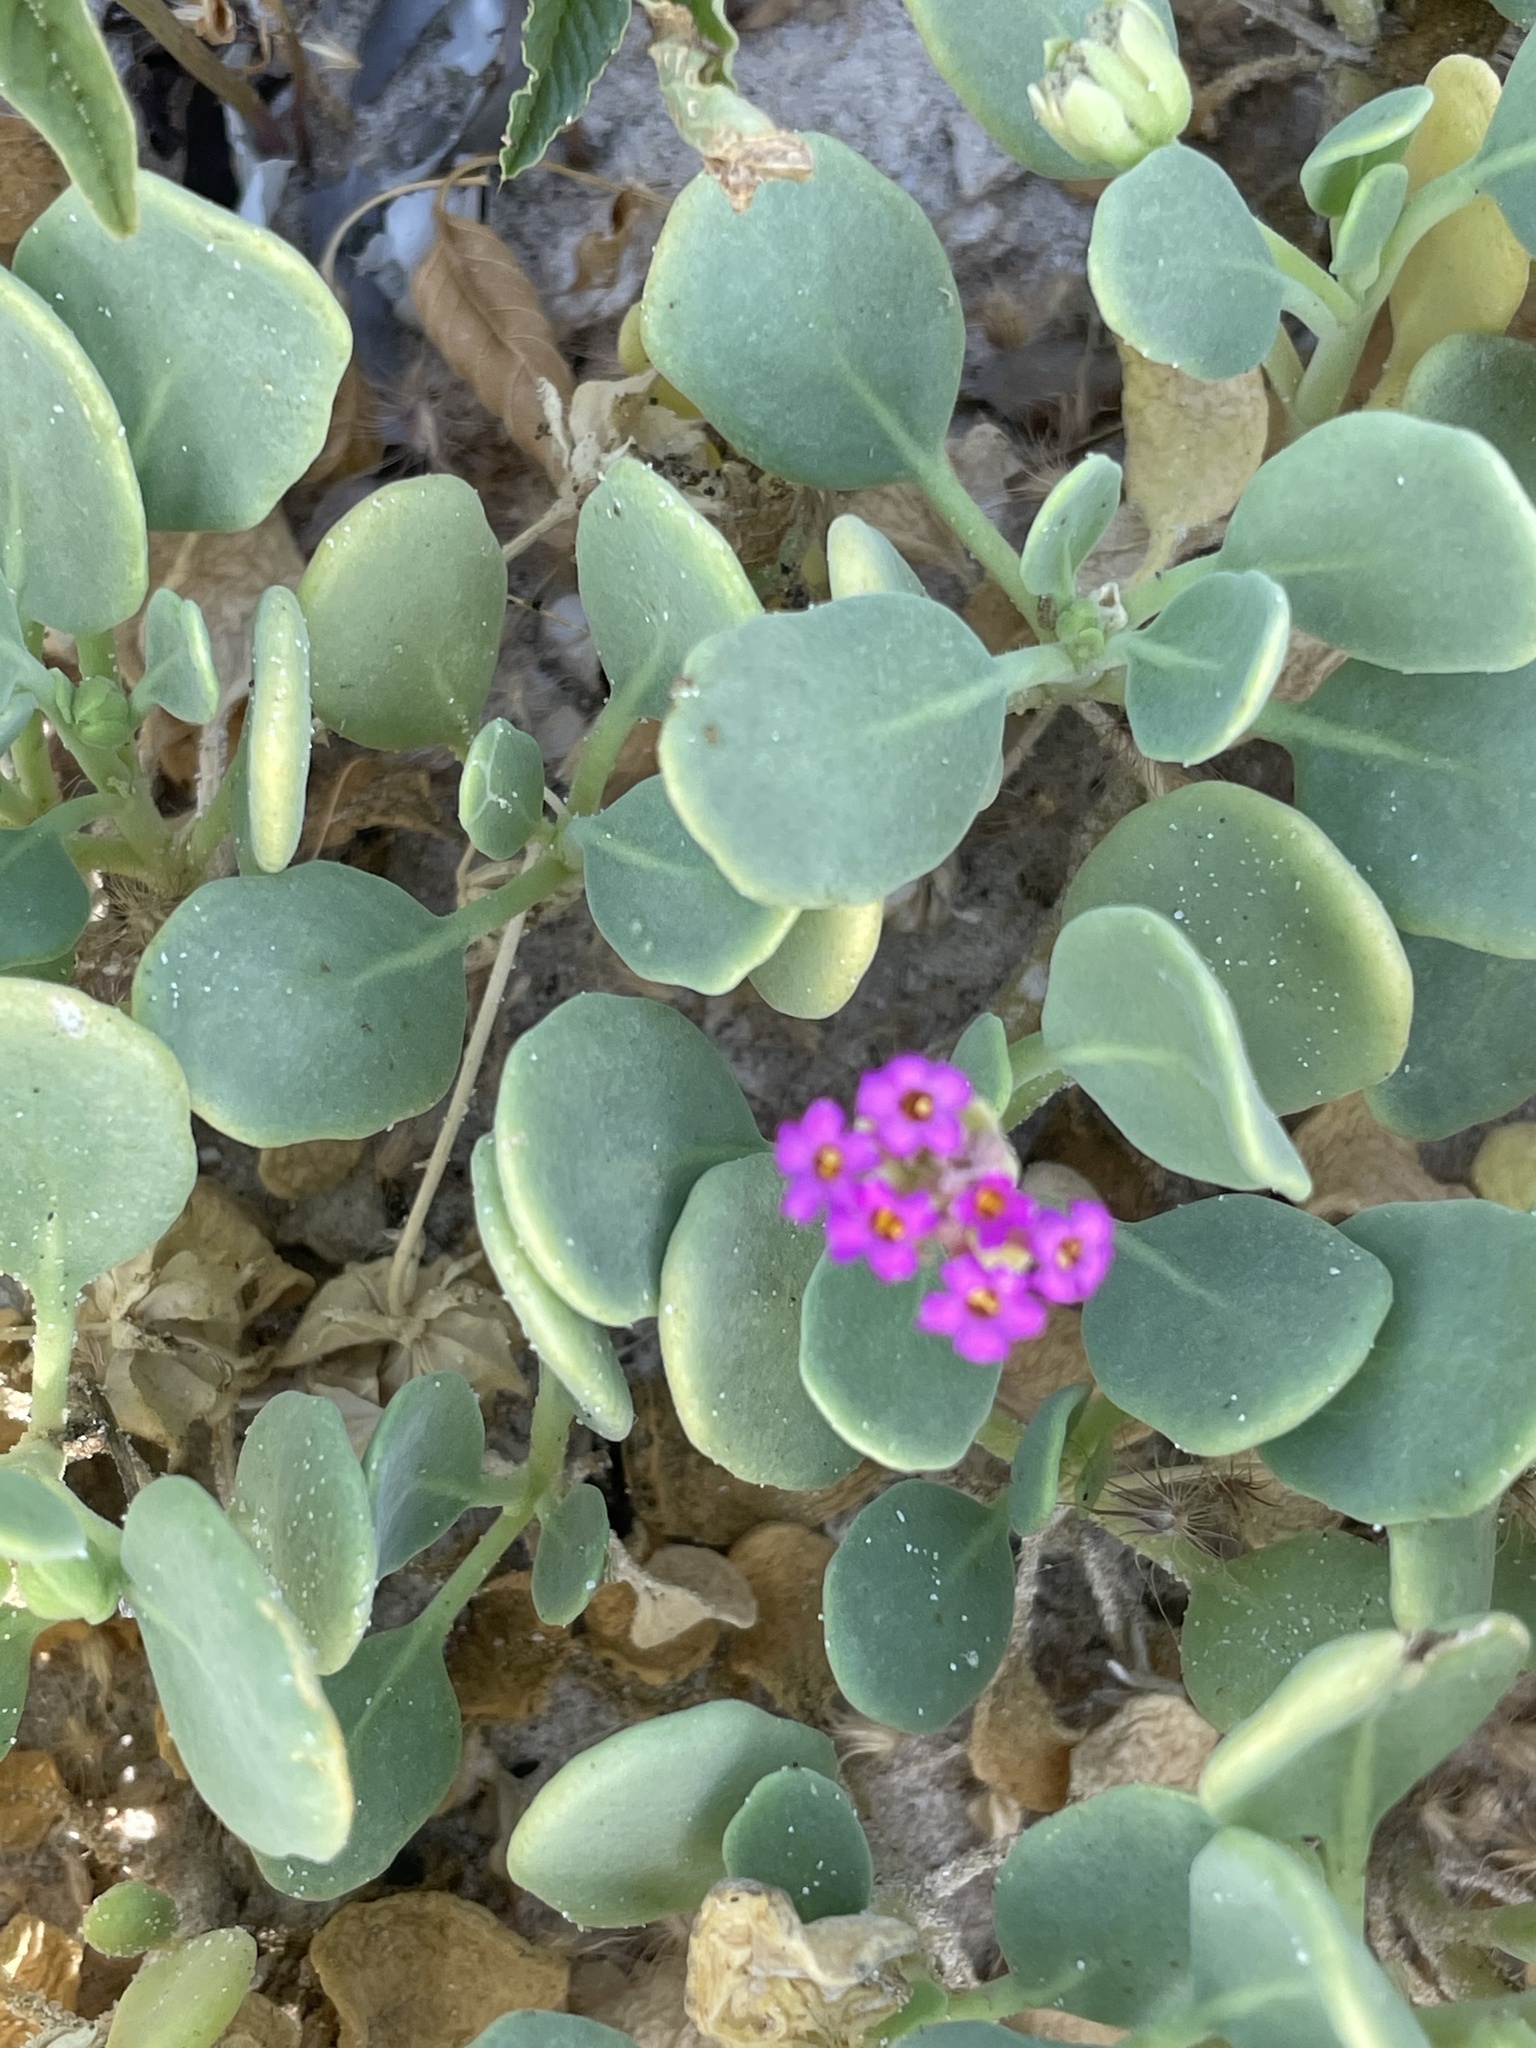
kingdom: Plantae
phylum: Tracheophyta
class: Magnoliopsida
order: Caryophyllales
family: Nyctaginaceae
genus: Abronia
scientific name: Abronia maritima
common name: Red sand-verbena
